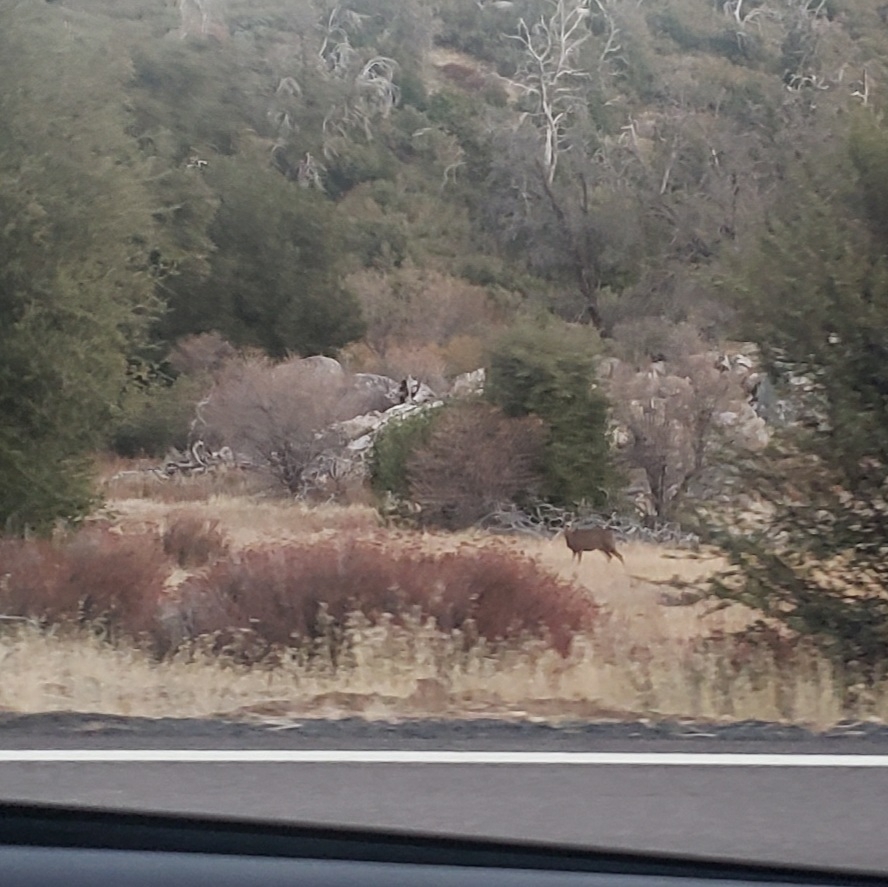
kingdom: Animalia
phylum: Chordata
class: Mammalia
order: Artiodactyla
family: Cervidae
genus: Odocoileus
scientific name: Odocoileus hemionus
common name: Mule deer
